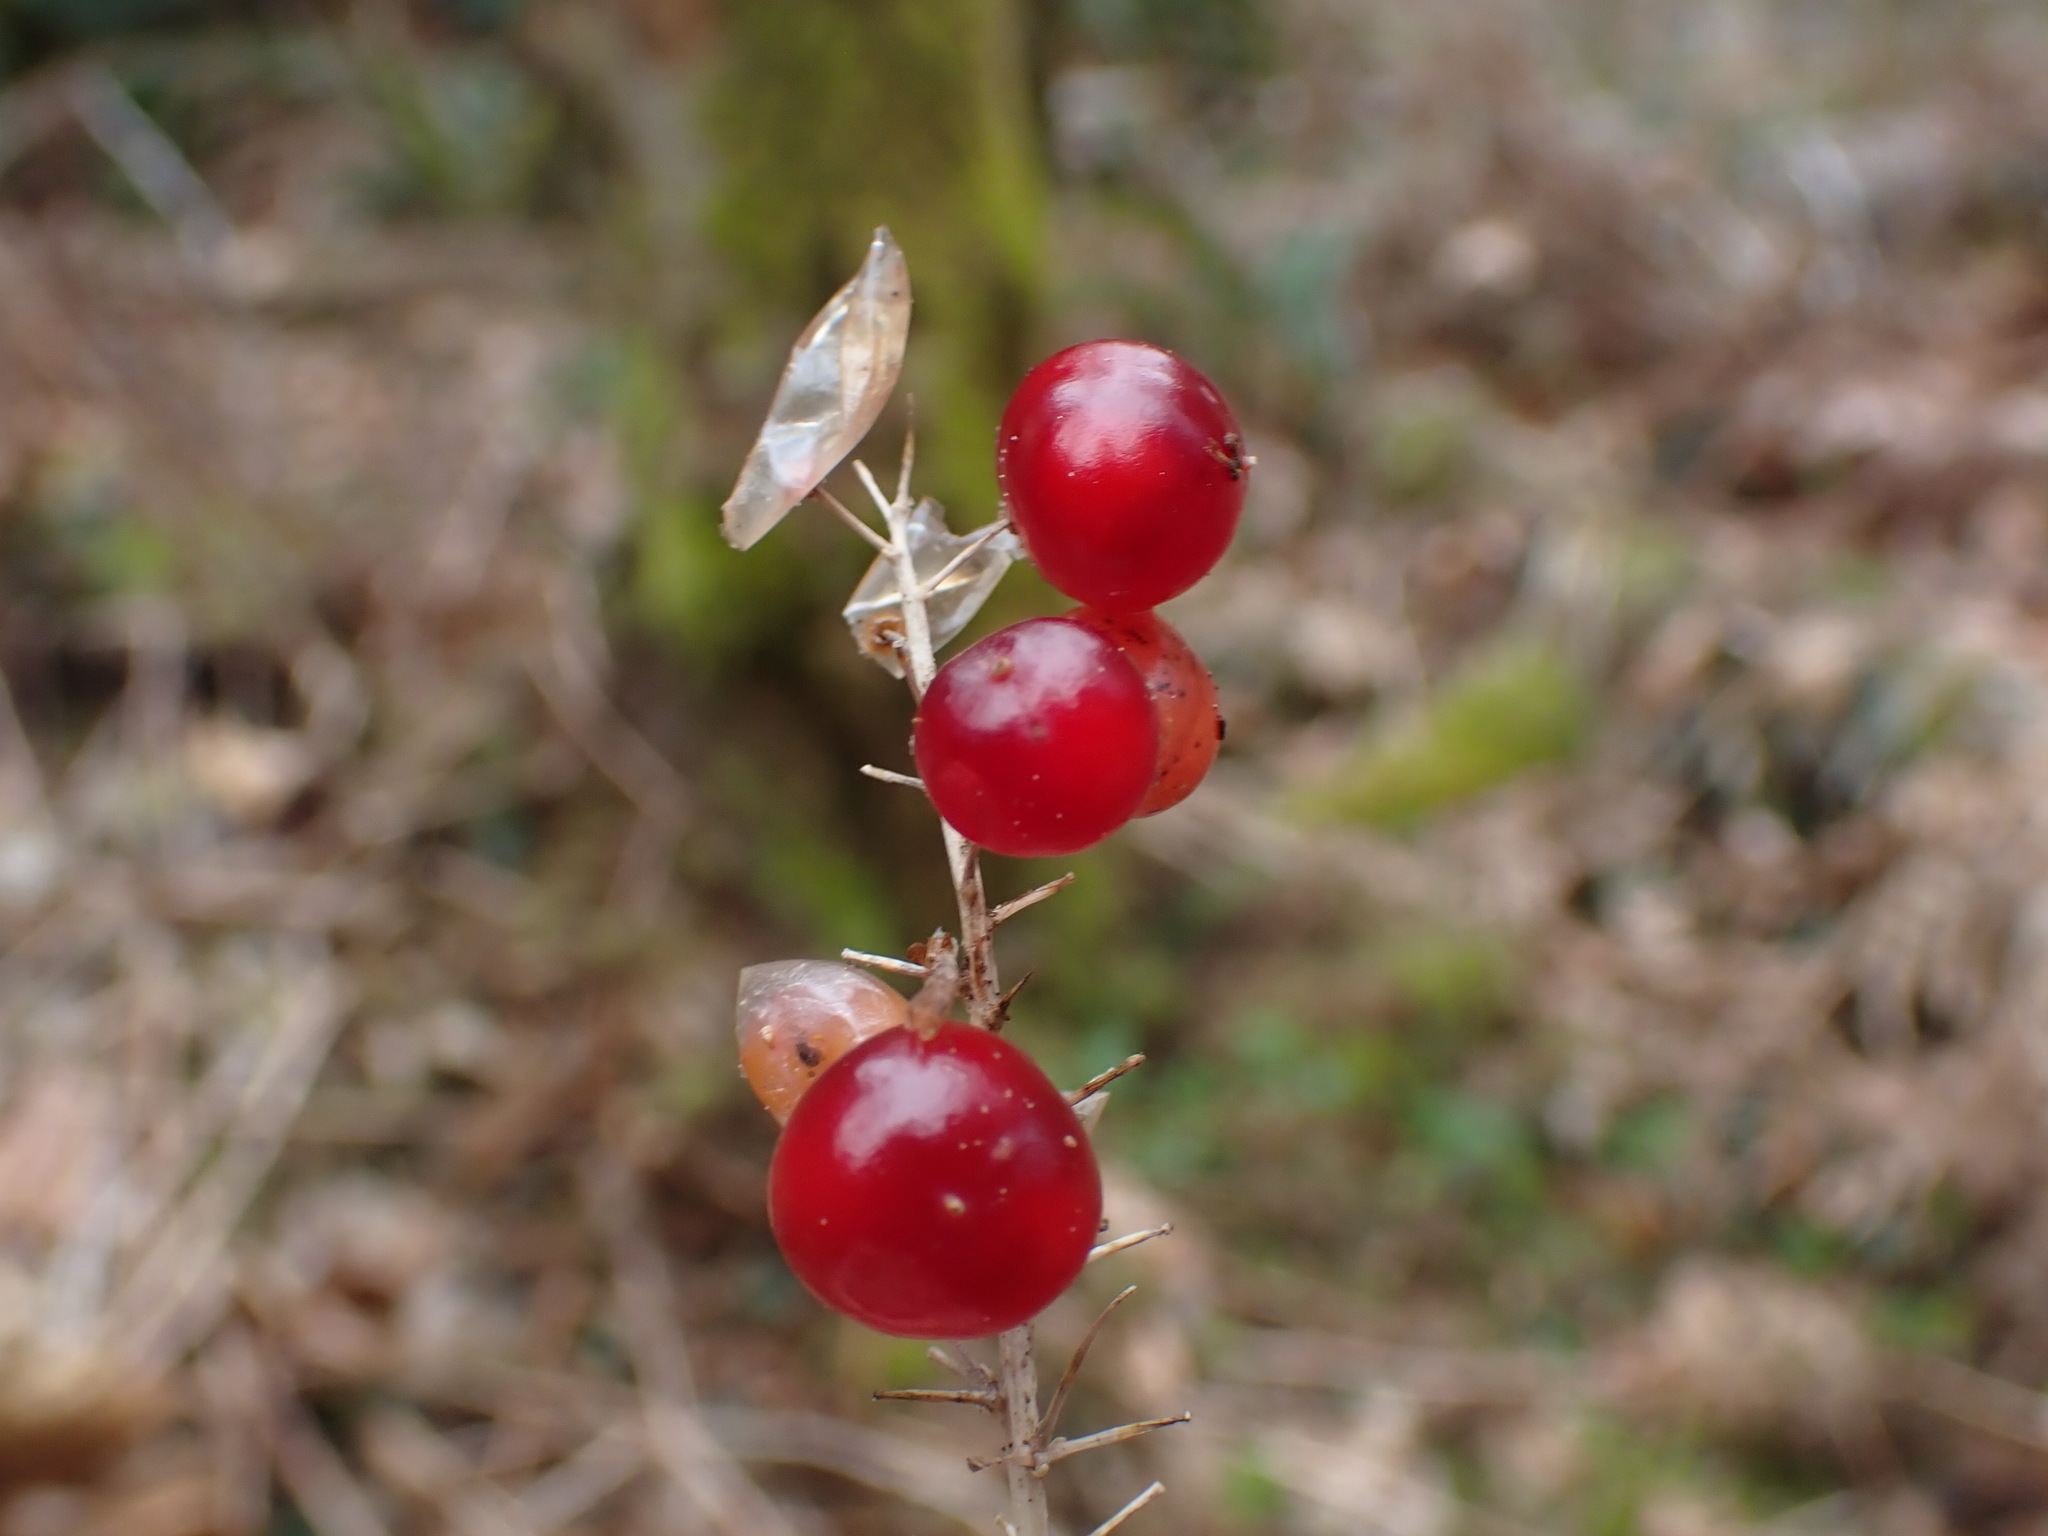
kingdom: Plantae
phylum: Tracheophyta
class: Liliopsida
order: Asparagales
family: Asparagaceae
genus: Maianthemum
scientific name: Maianthemum dilatatum
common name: False lily-of-the-valley
